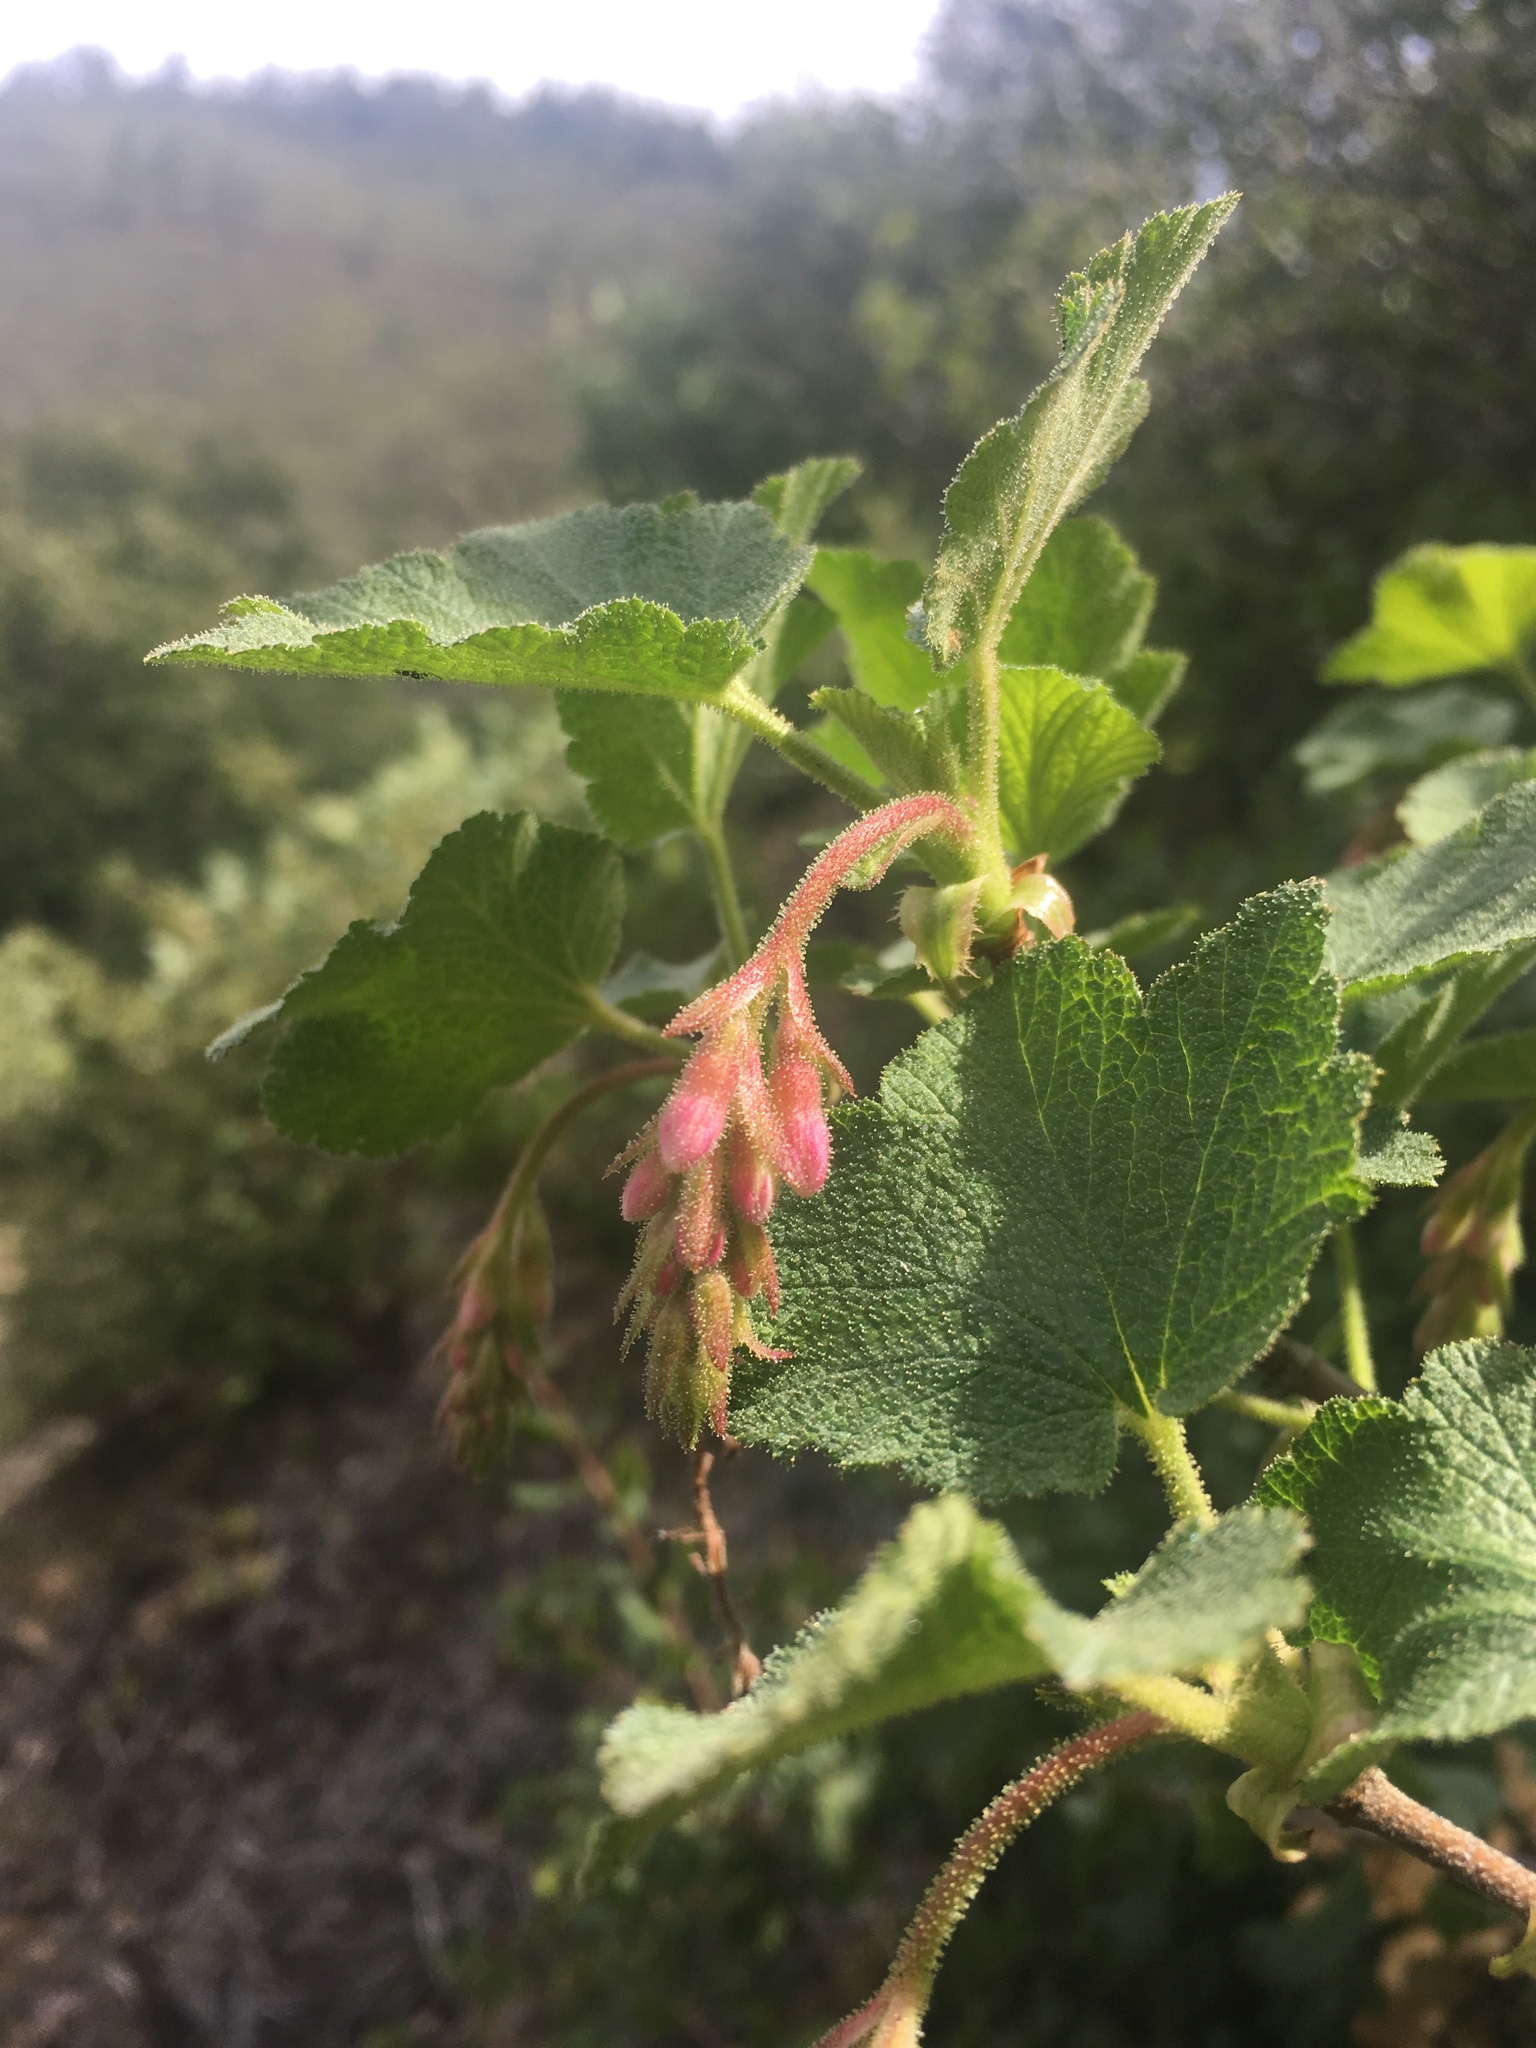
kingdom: Plantae
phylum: Tracheophyta
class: Magnoliopsida
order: Saxifragales
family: Grossulariaceae
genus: Ribes
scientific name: Ribes malvaceum
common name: Chaparral currant
